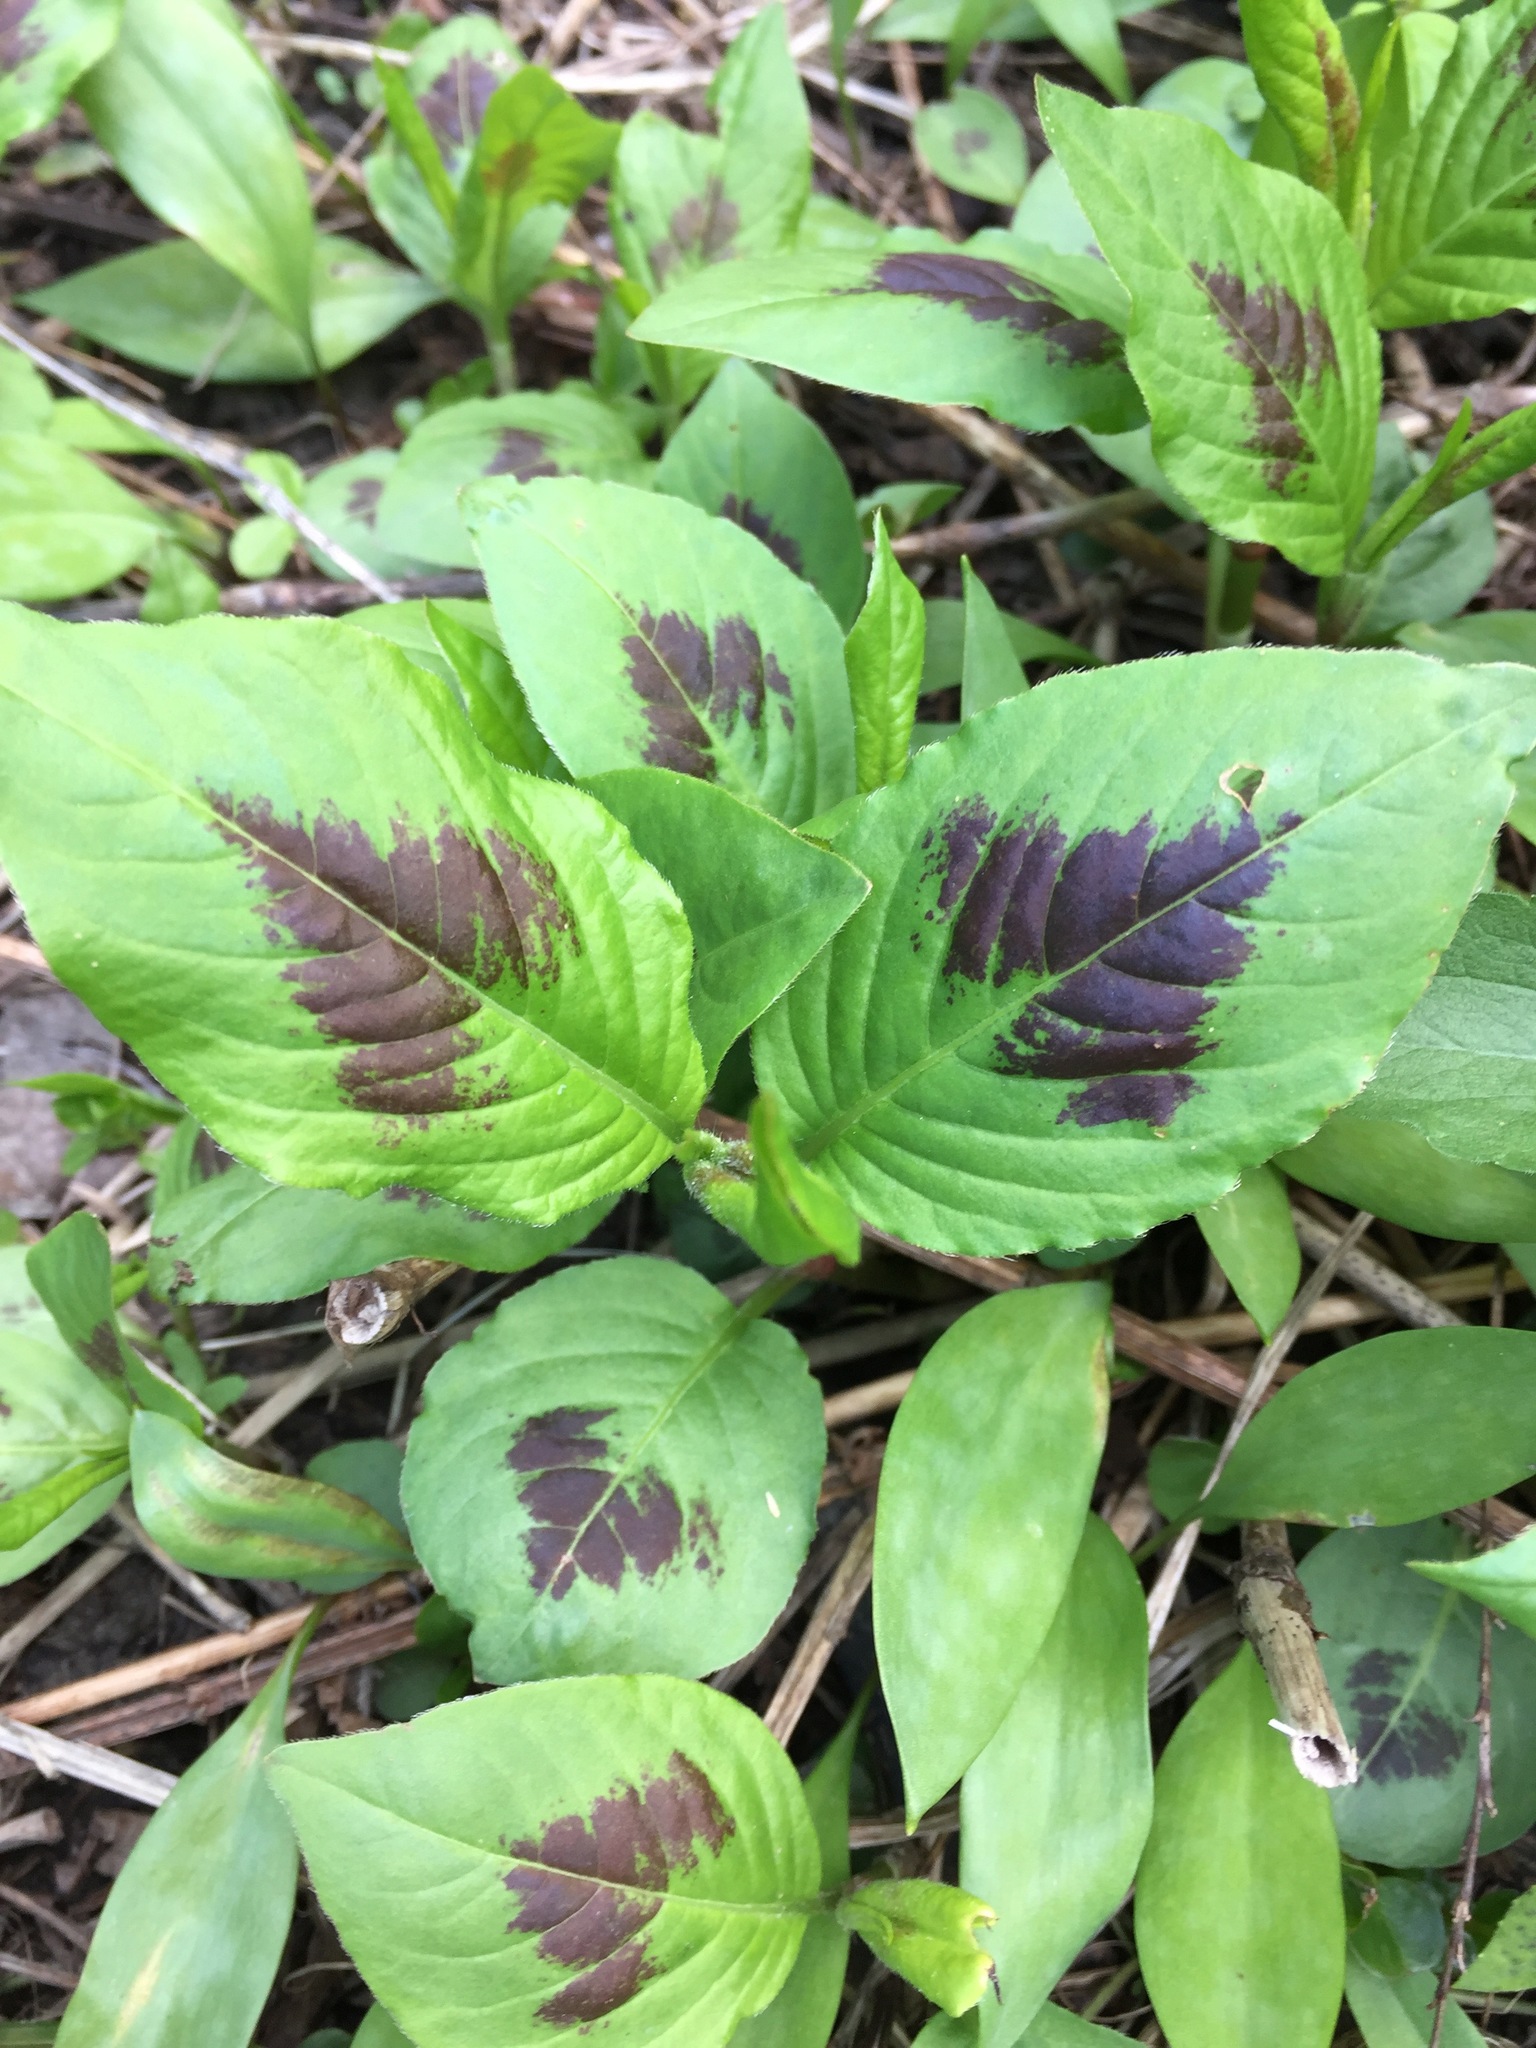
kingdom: Plantae
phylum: Tracheophyta
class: Magnoliopsida
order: Caryophyllales
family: Polygonaceae
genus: Persicaria
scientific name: Persicaria virginiana
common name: Jumpseed
